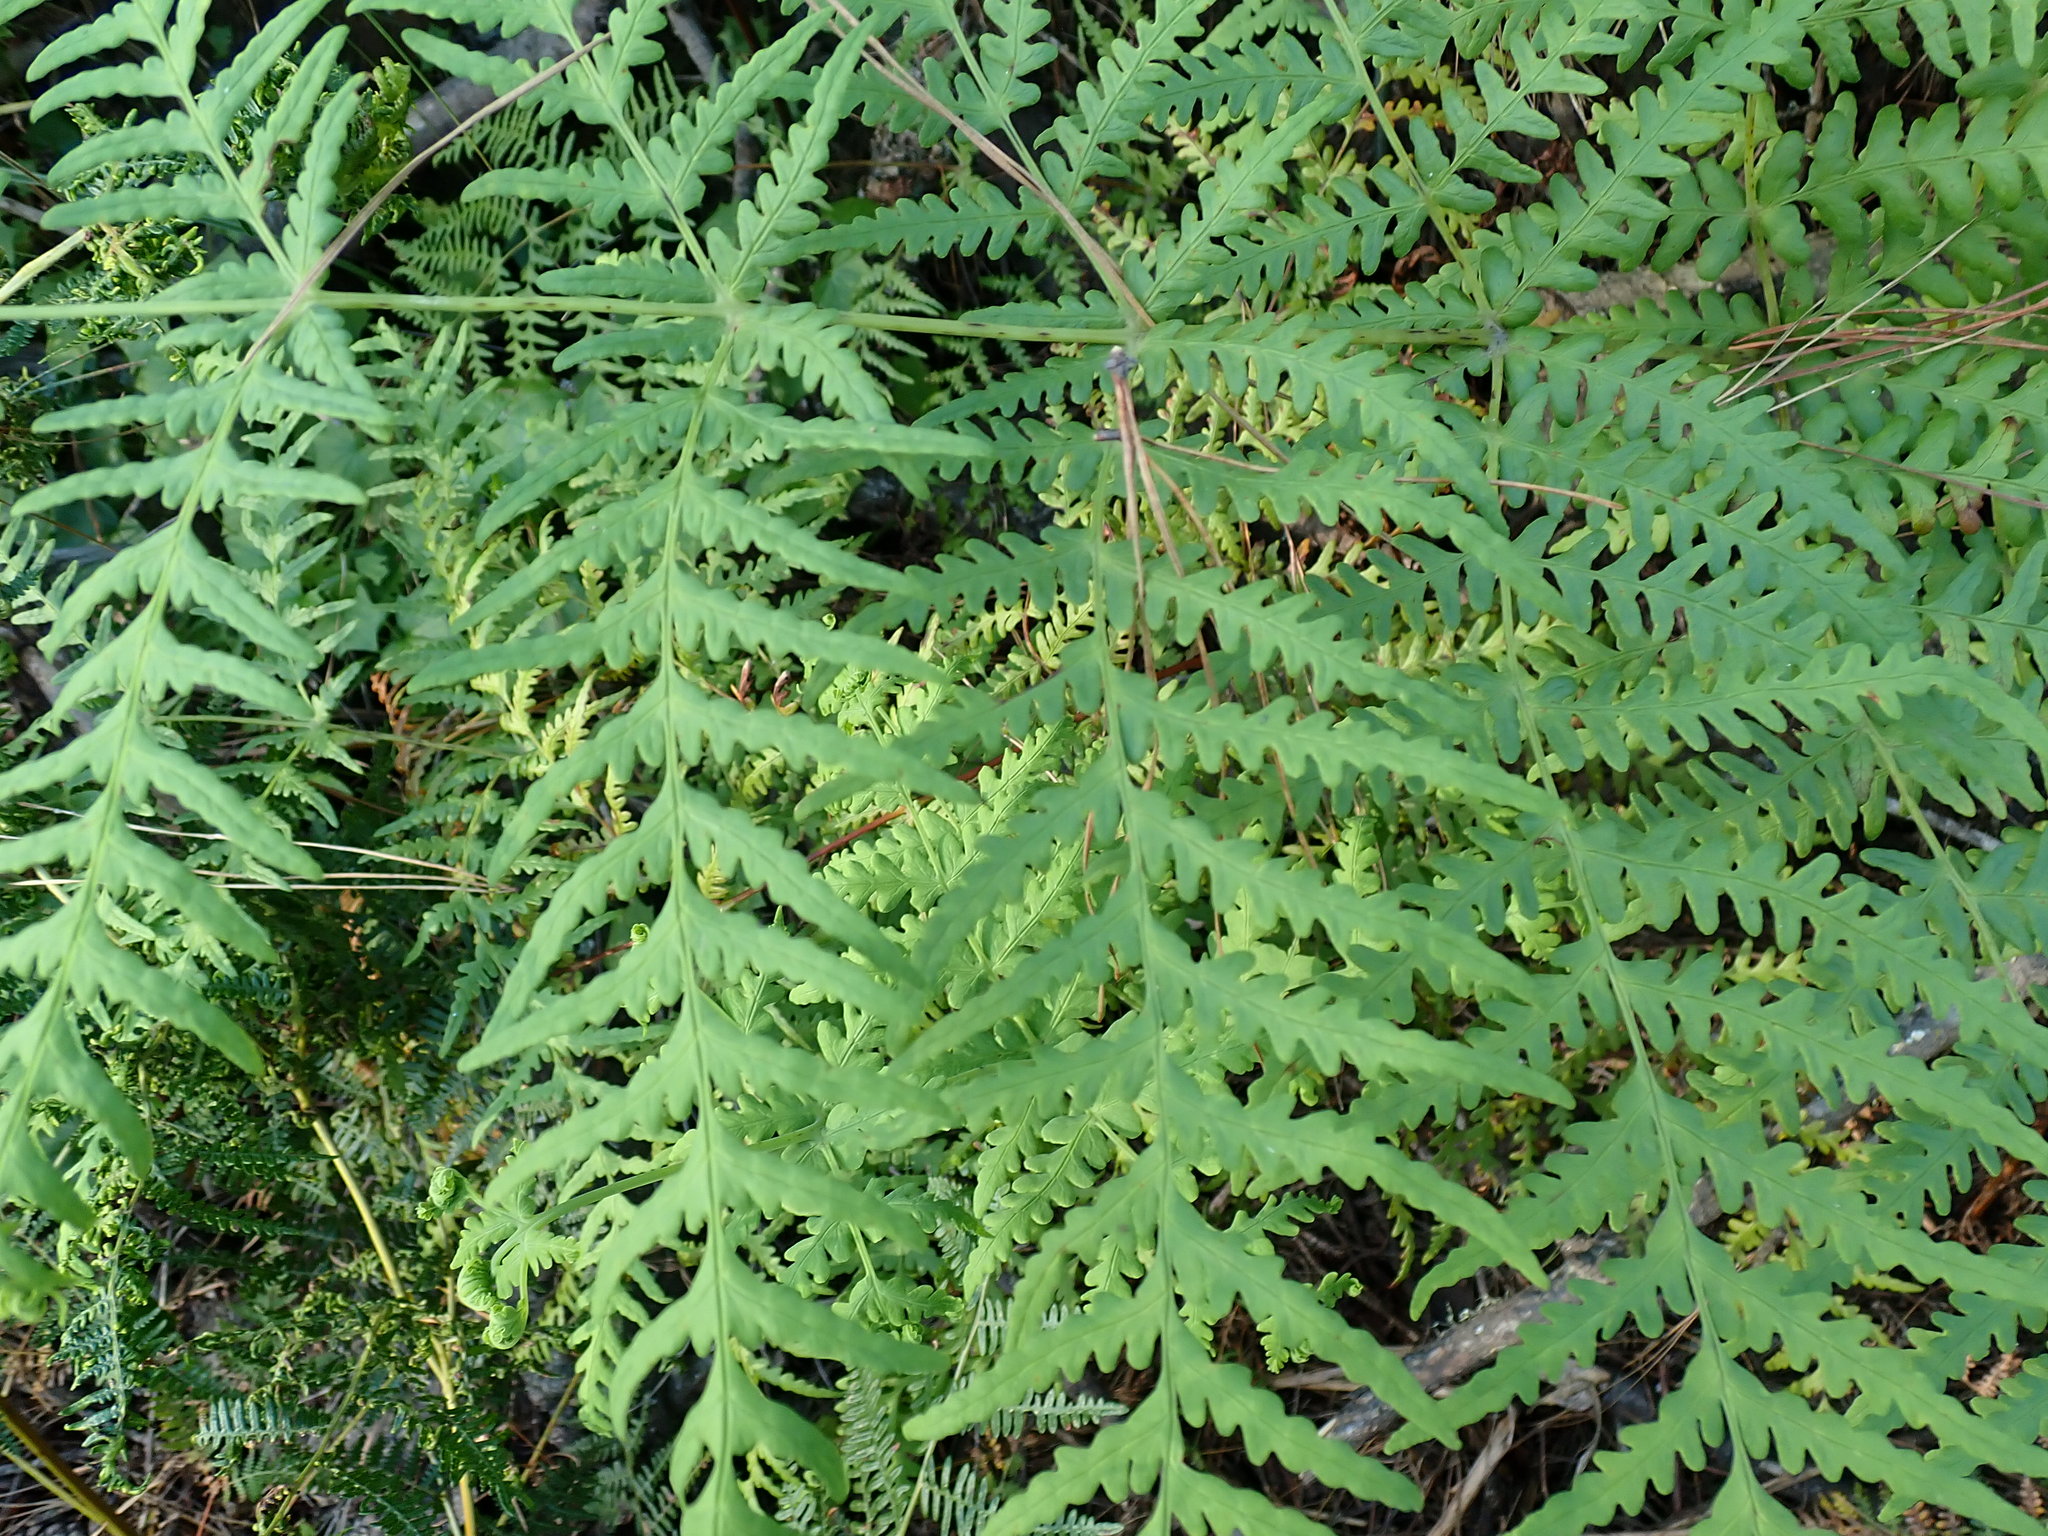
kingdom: Plantae
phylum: Tracheophyta
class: Polypodiopsida
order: Polypodiales
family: Dennstaedtiaceae
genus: Histiopteris
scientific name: Histiopteris incisa
